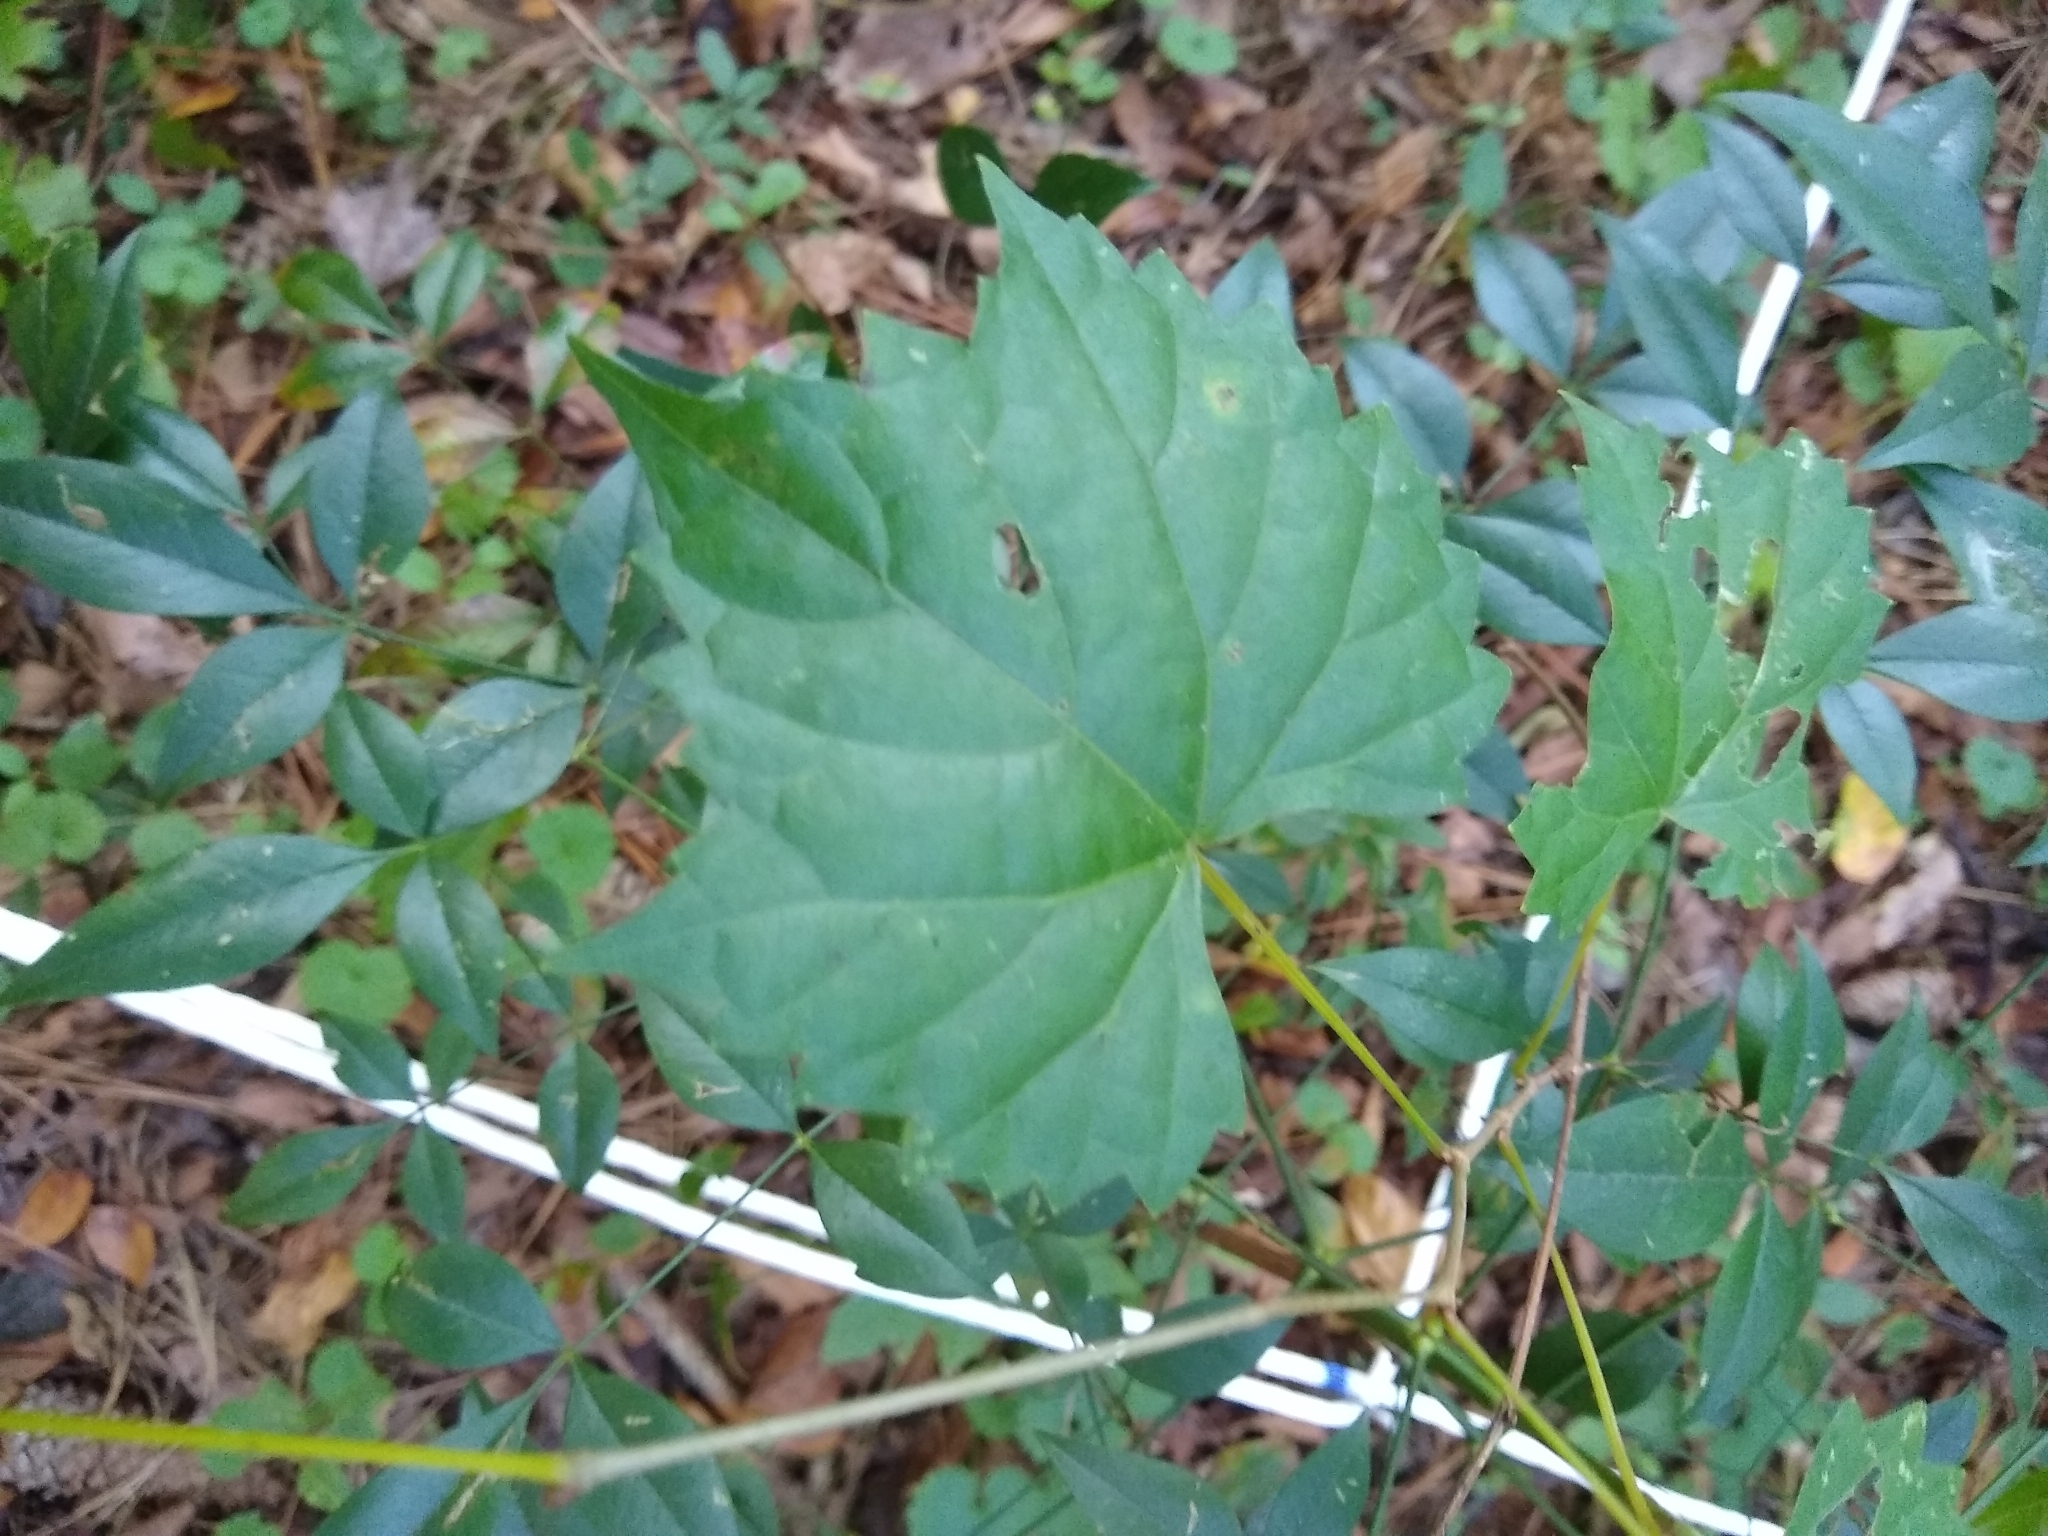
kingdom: Plantae
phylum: Tracheophyta
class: Magnoliopsida
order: Vitales
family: Vitaceae
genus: Vitis
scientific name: Vitis rotundifolia
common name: Muscadine grape
